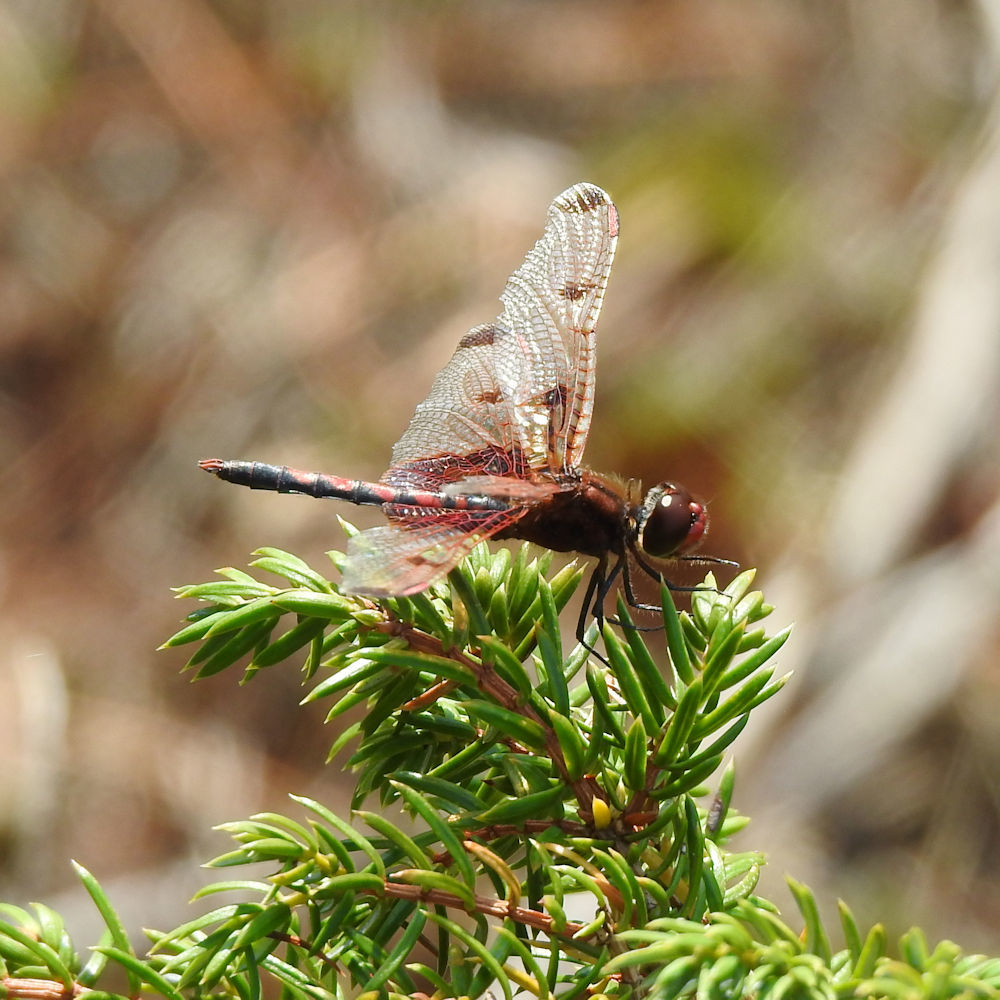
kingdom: Animalia
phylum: Arthropoda
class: Insecta
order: Odonata
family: Libellulidae
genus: Celithemis
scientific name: Celithemis elisa
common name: Calico pennant
